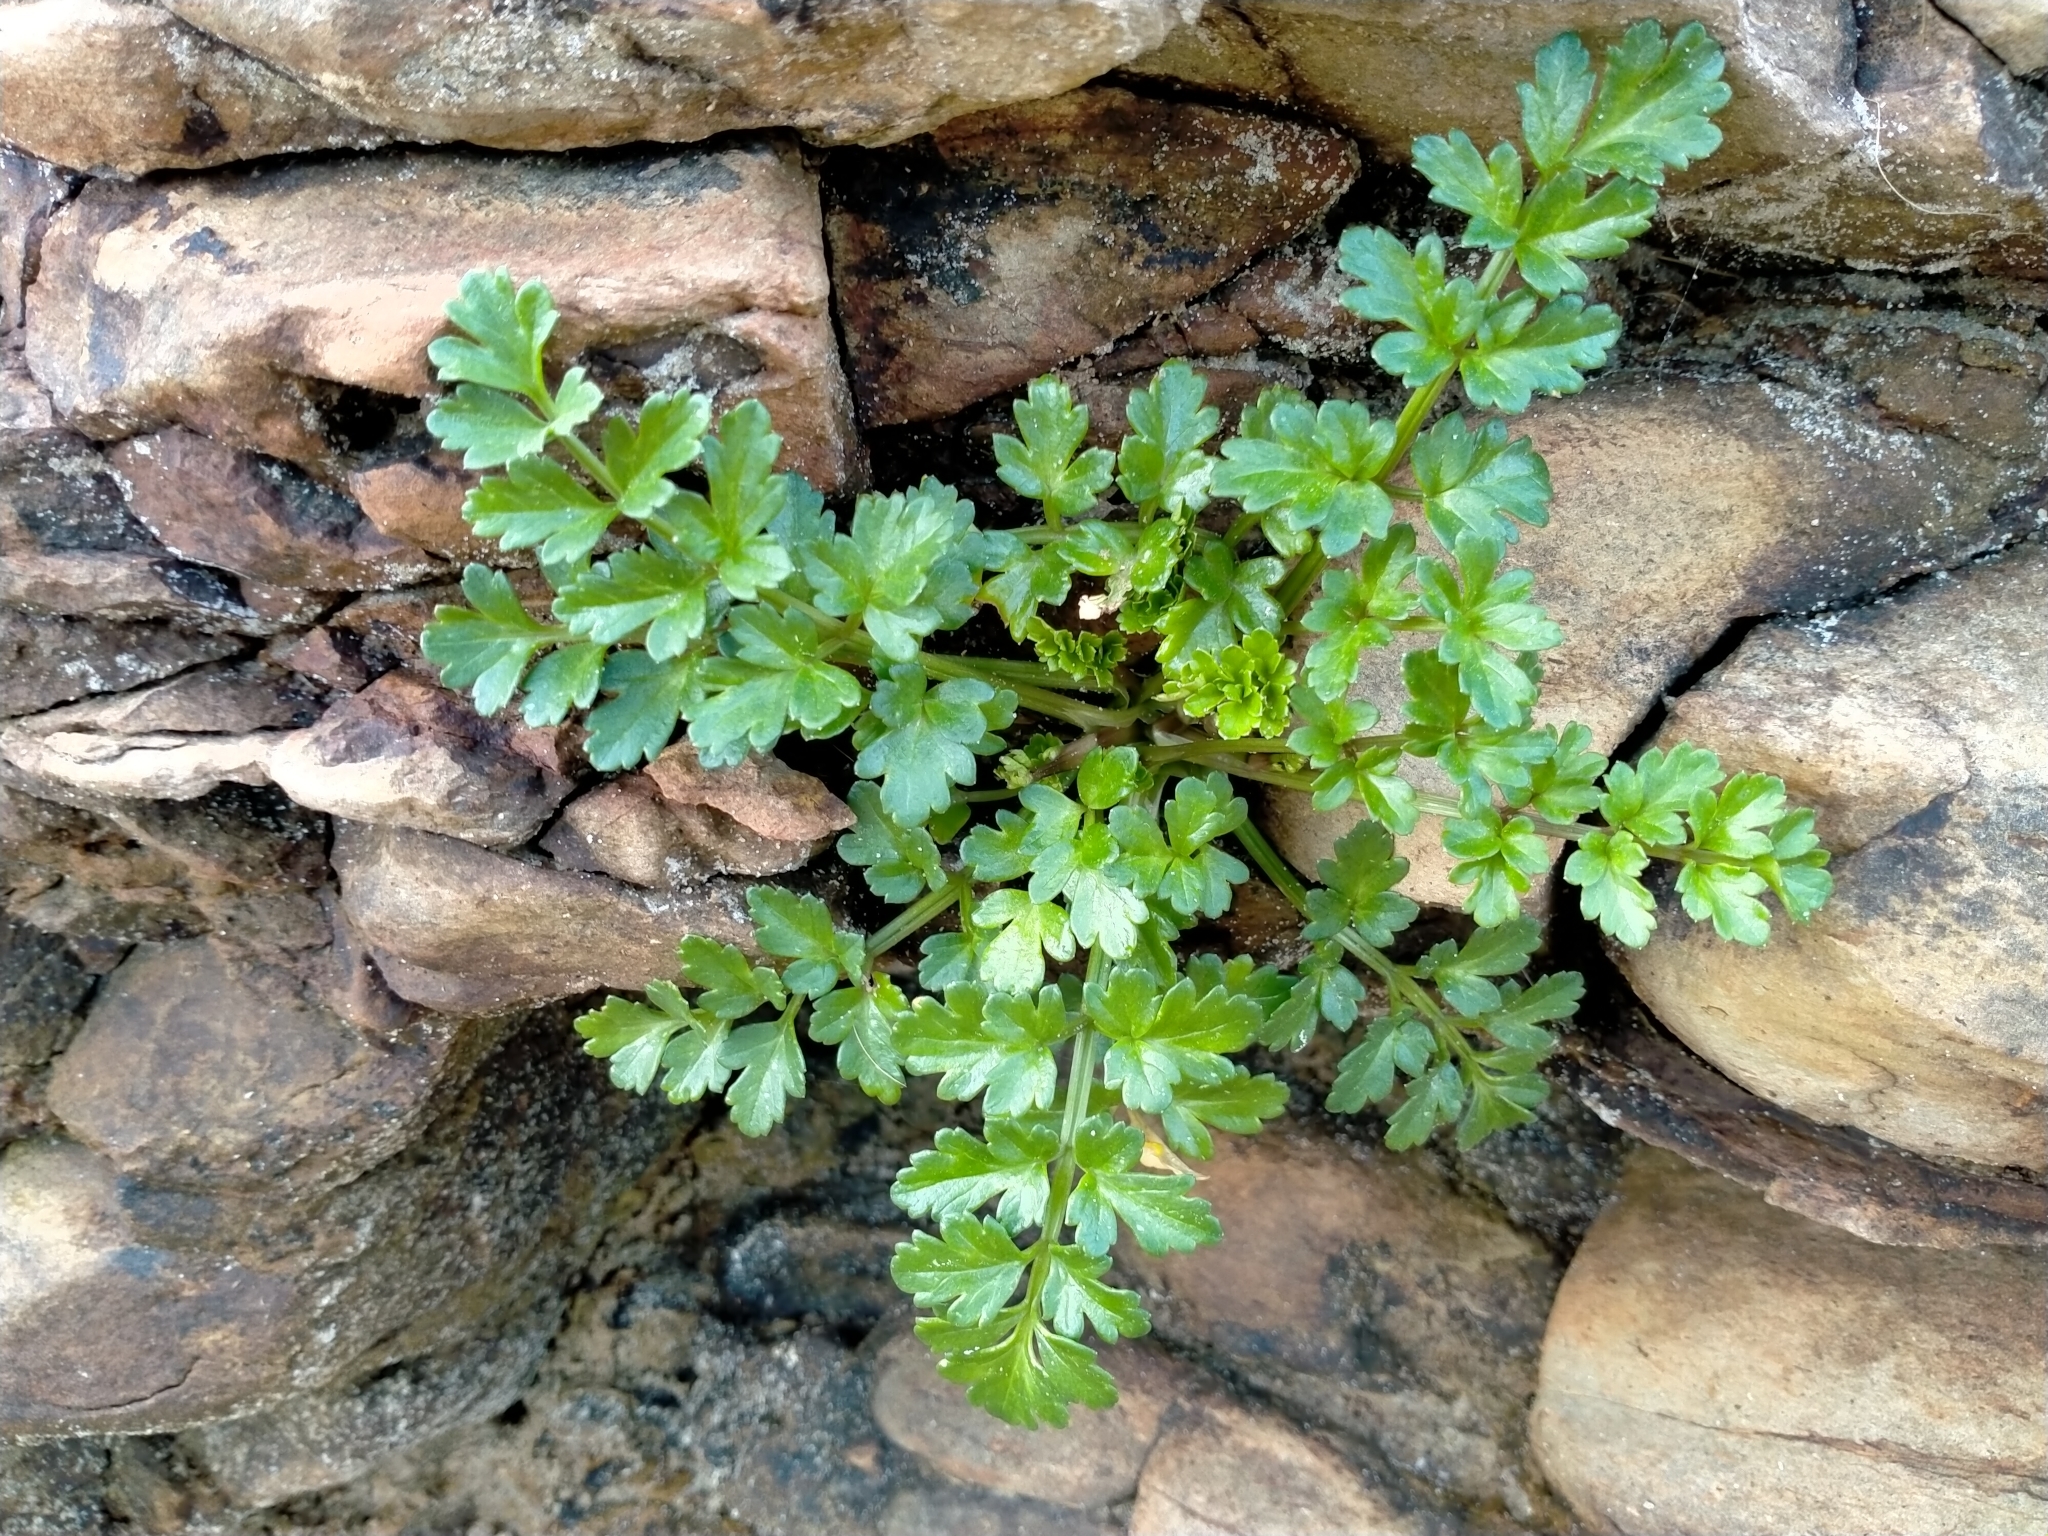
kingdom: Plantae
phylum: Tracheophyta
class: Magnoliopsida
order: Apiales
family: Apiaceae
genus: Apium
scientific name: Apium prostratum
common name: Prostrate marshwort
